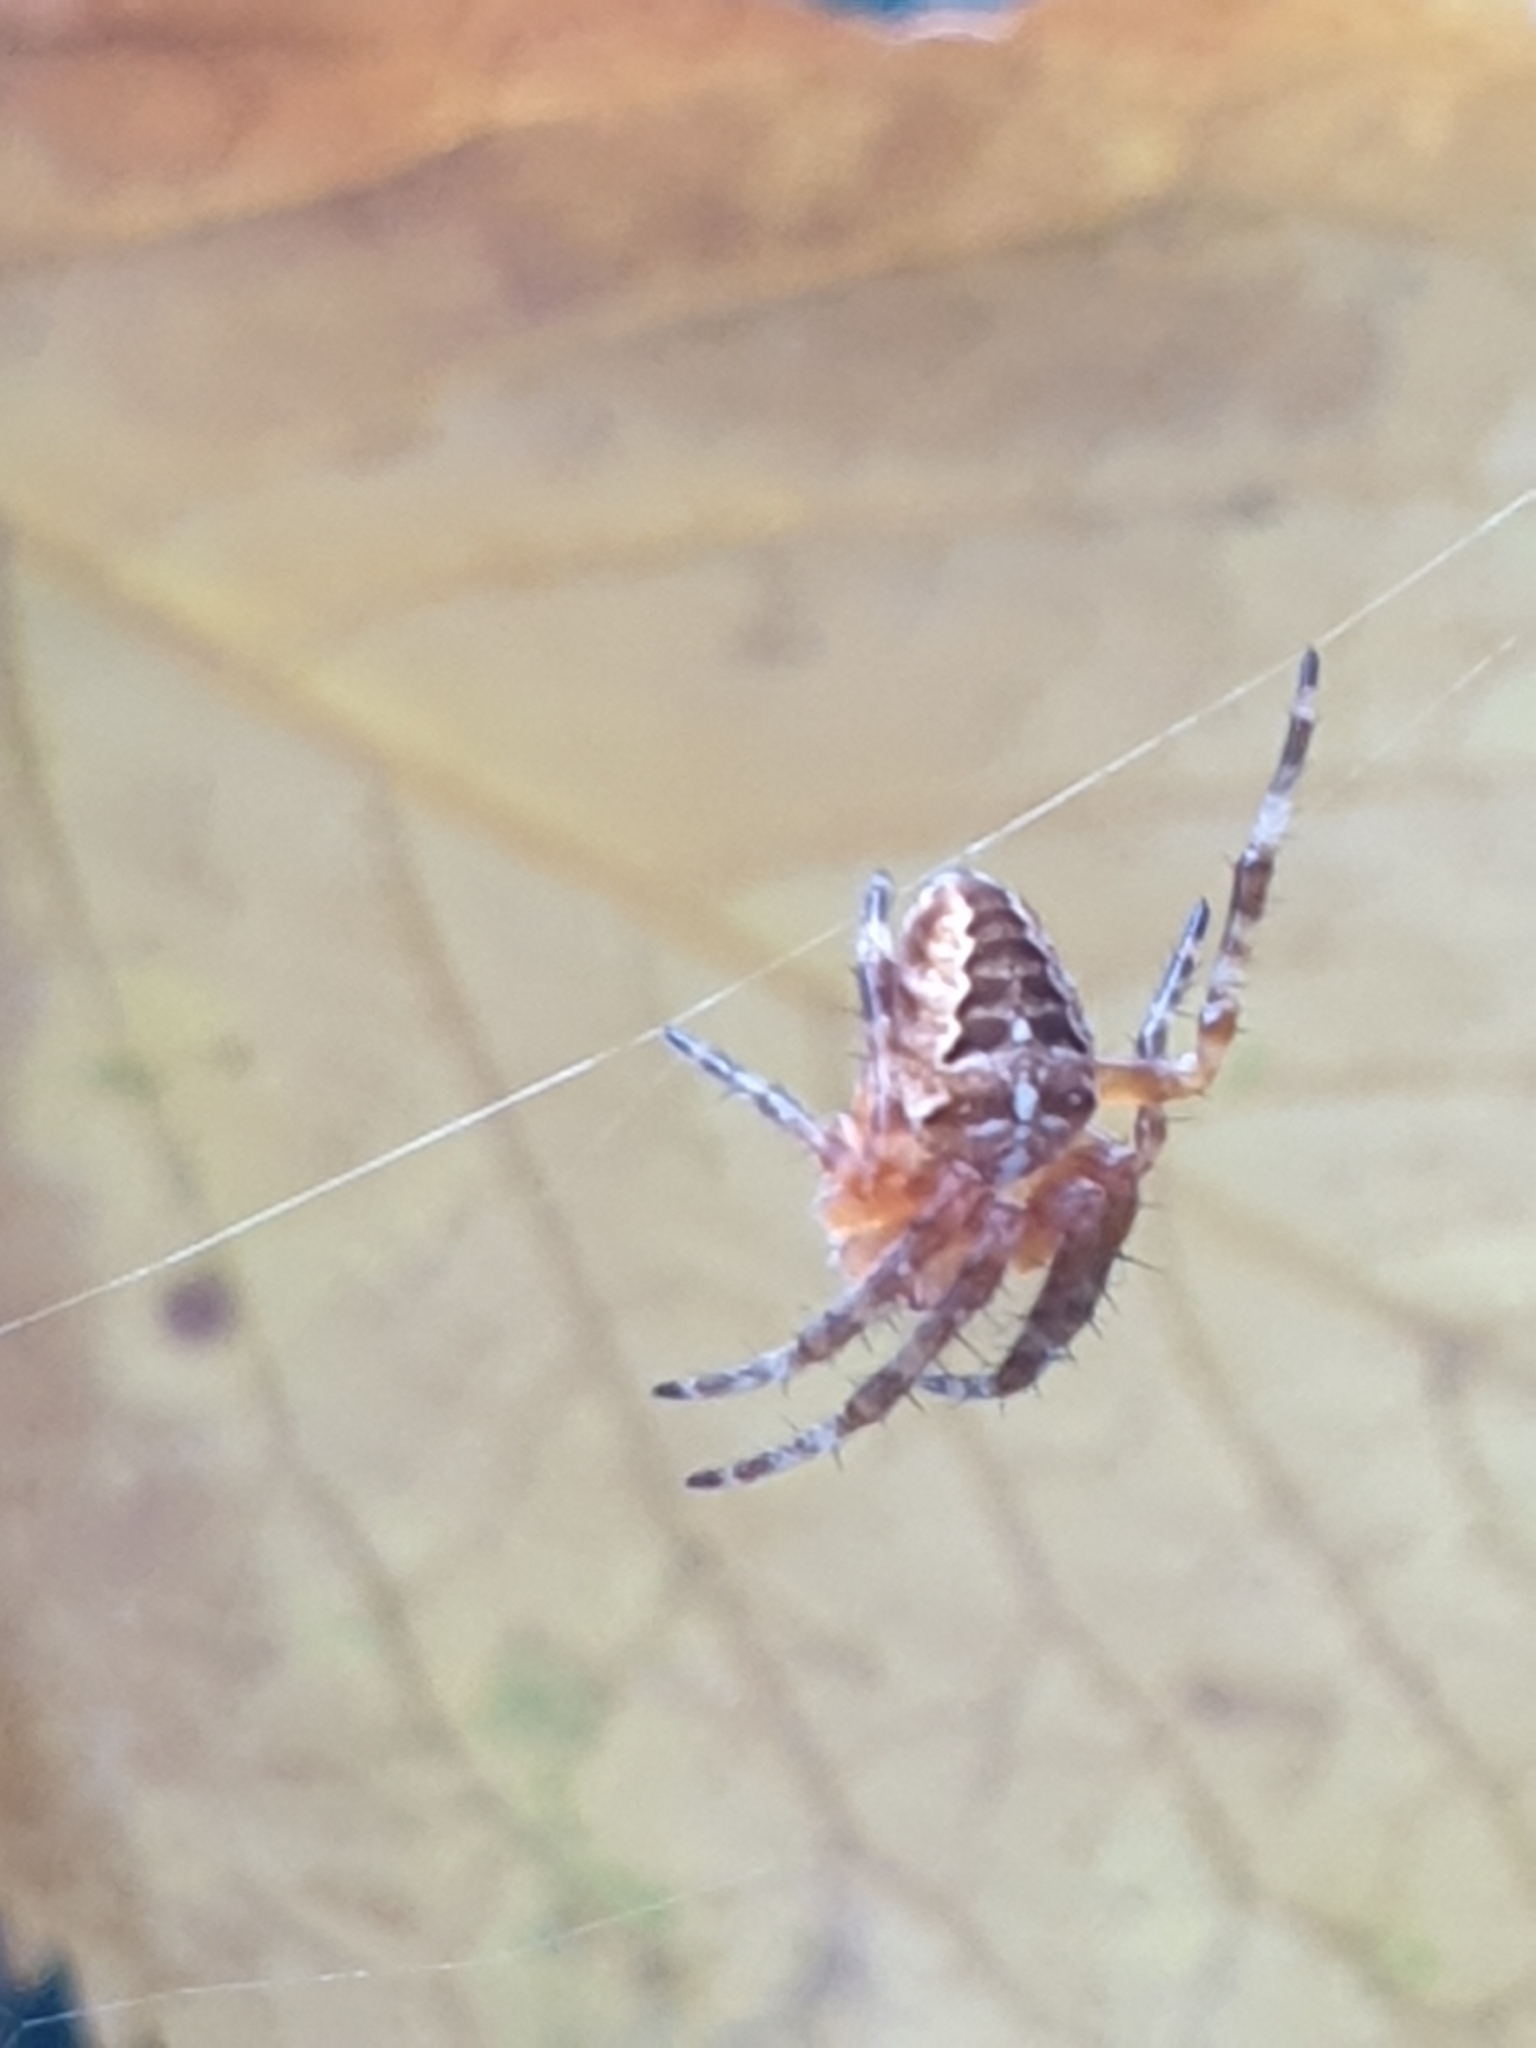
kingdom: Animalia
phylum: Arthropoda
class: Arachnida
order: Araneae
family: Araneidae
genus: Araneus
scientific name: Araneus diadematus
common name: Cross orbweaver
